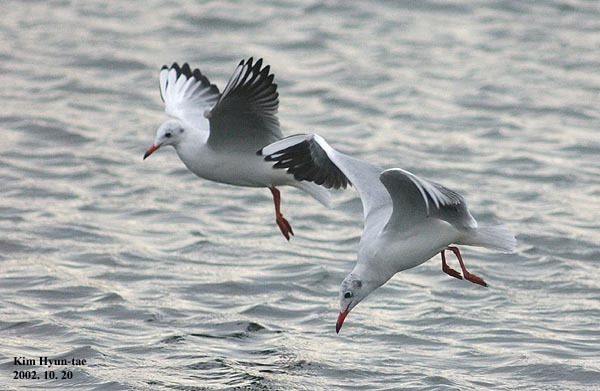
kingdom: Animalia
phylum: Chordata
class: Aves
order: Charadriiformes
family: Laridae
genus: Chroicocephalus
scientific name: Chroicocephalus ridibundus
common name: Black-headed gull
